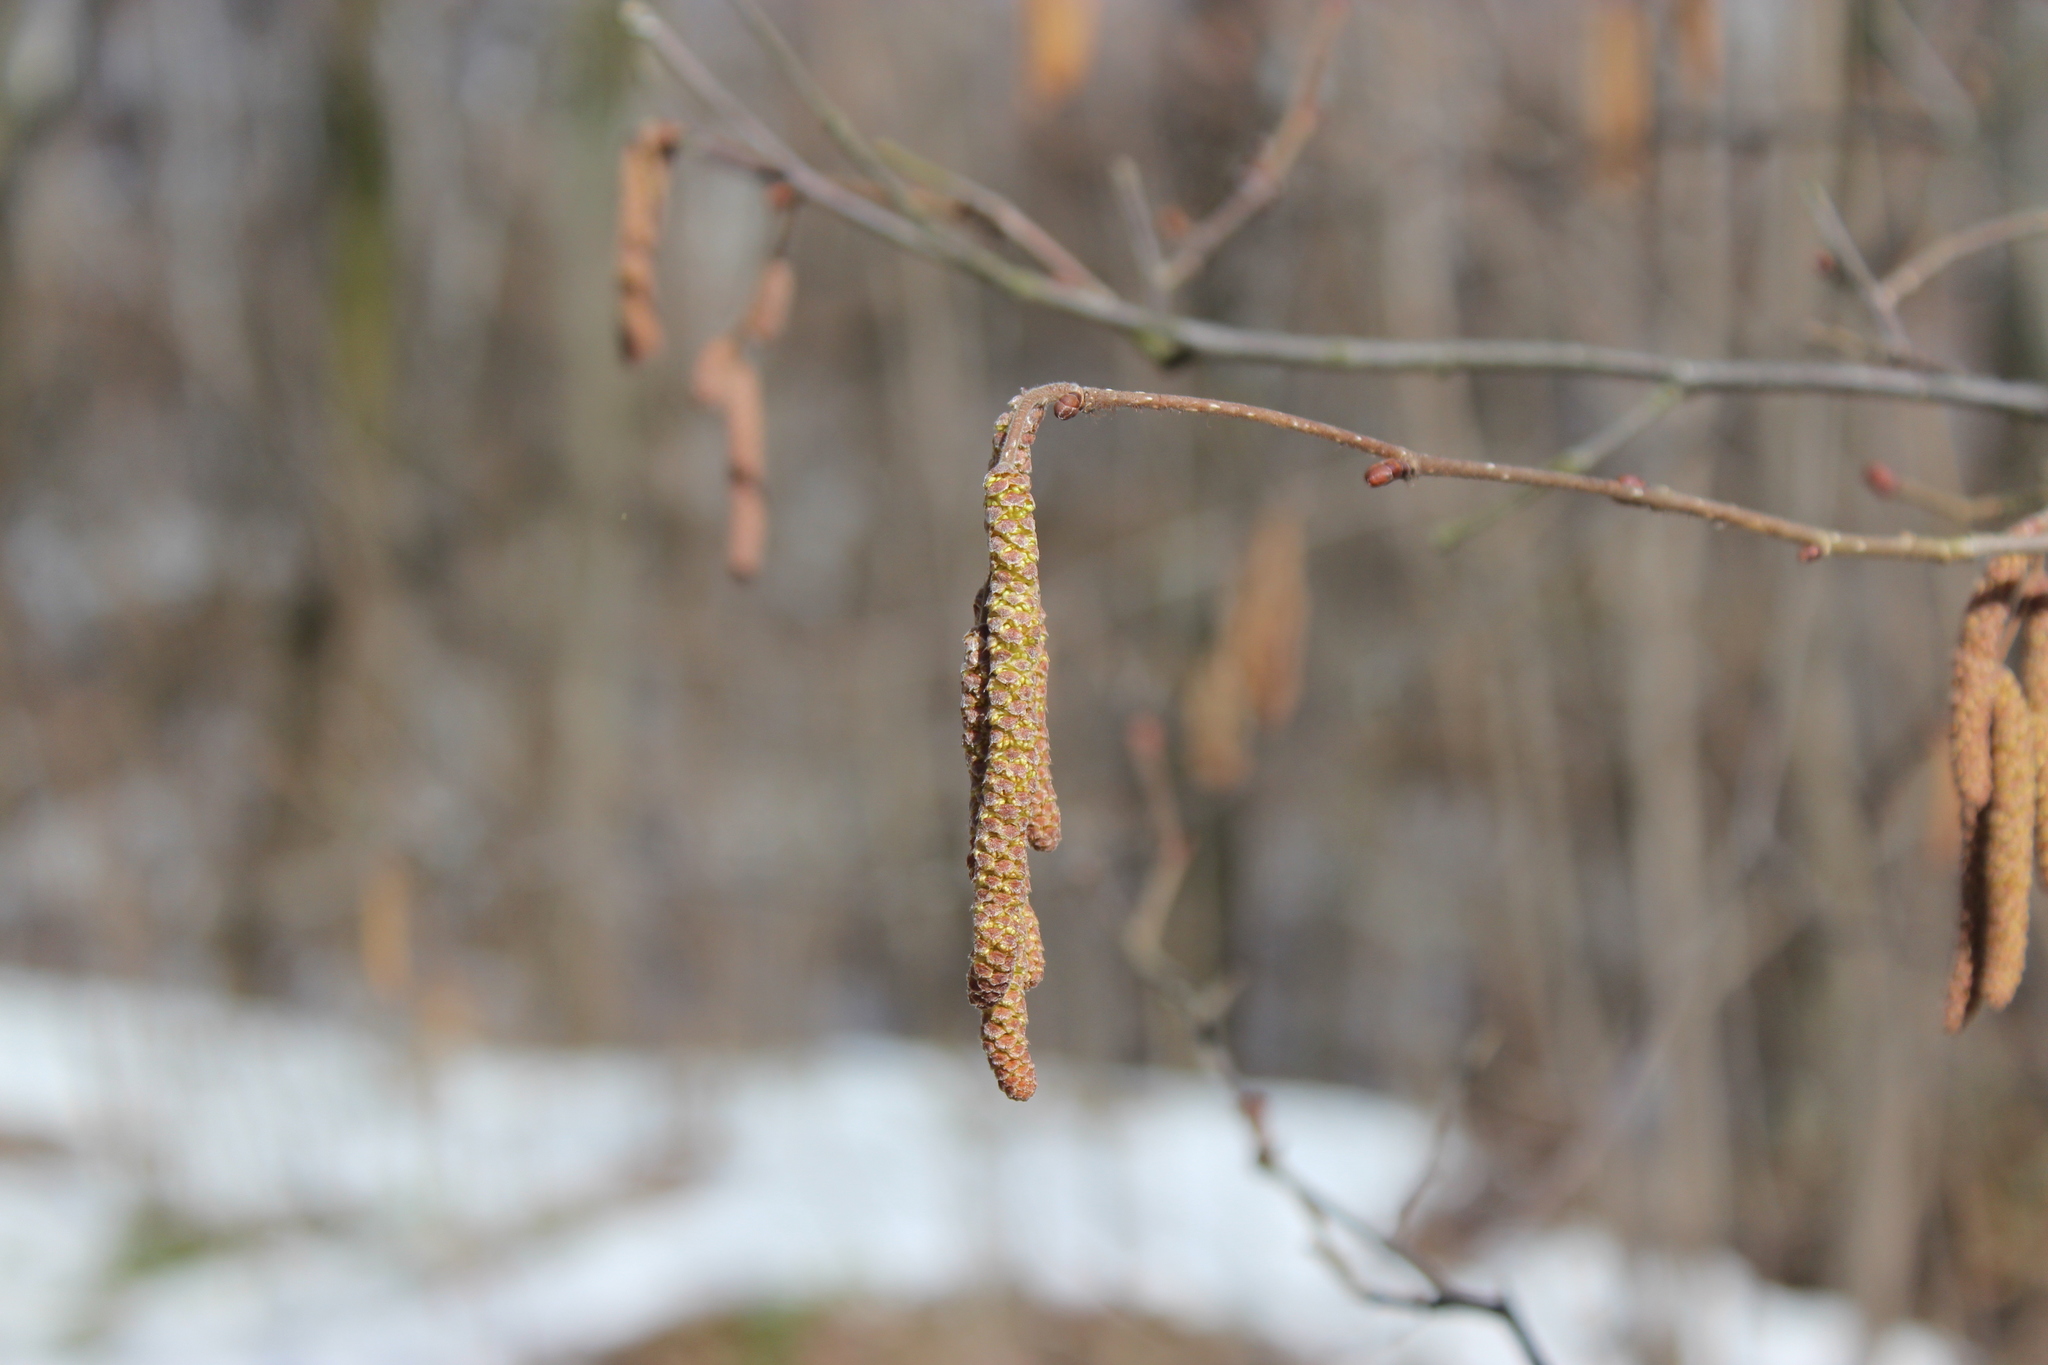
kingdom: Plantae
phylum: Tracheophyta
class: Magnoliopsida
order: Fagales
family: Betulaceae
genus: Corylus
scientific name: Corylus avellana
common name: European hazel
